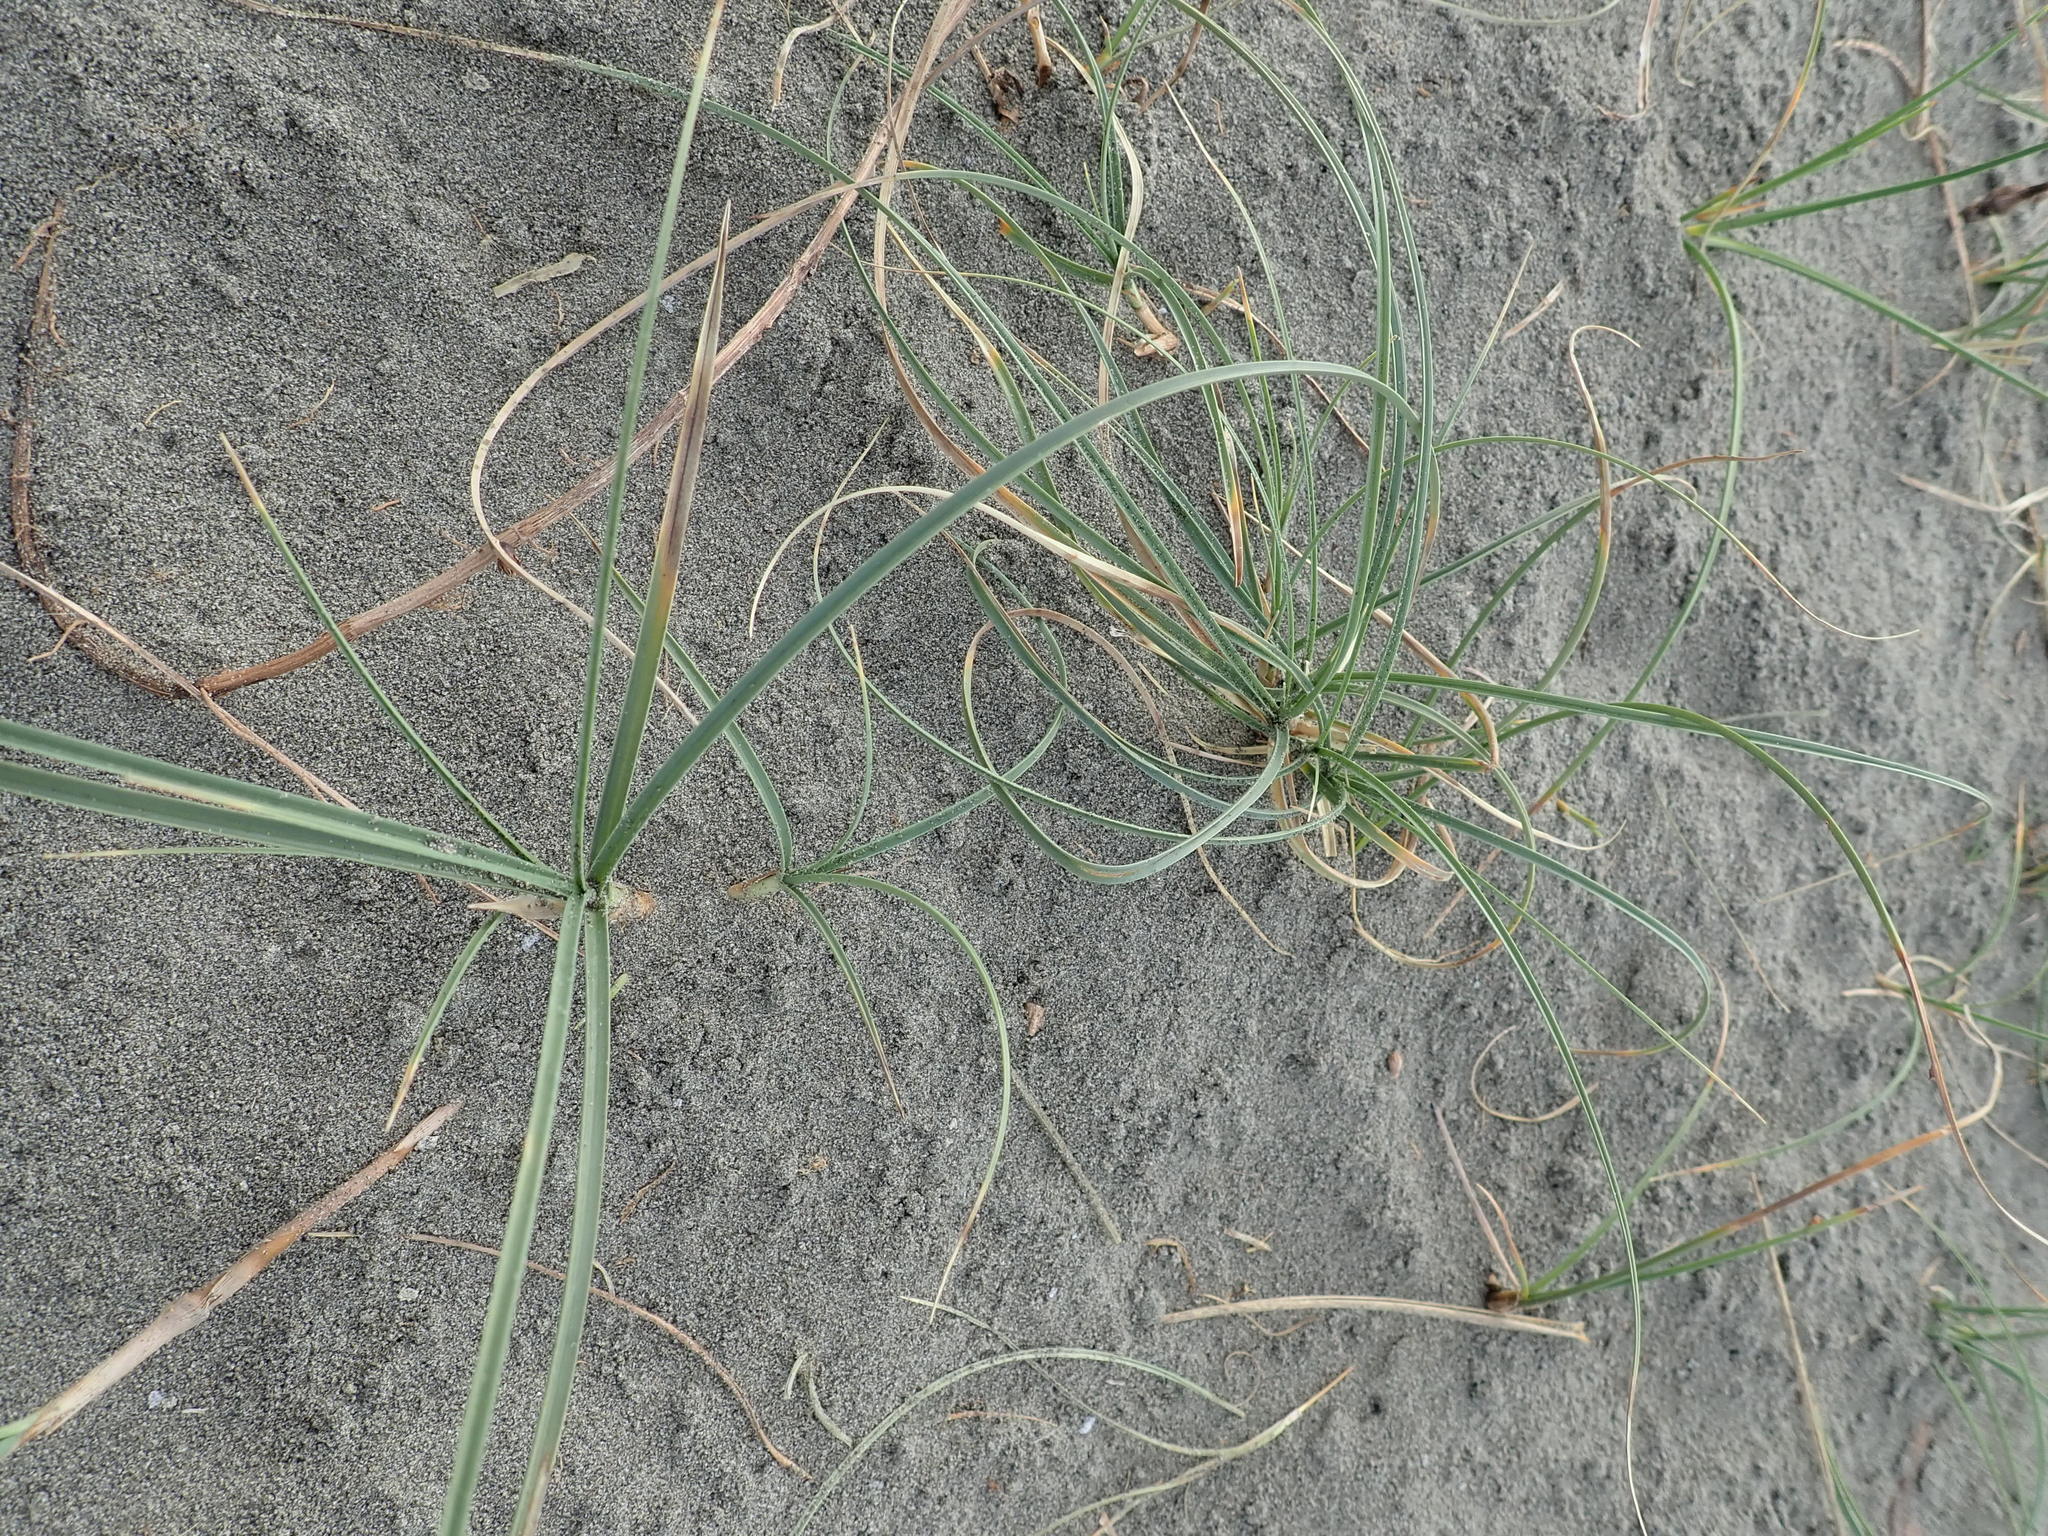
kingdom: Plantae
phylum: Tracheophyta
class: Liliopsida
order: Poales
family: Cyperaceae
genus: Carex
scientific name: Carex pumila
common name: Dwarf sedge
